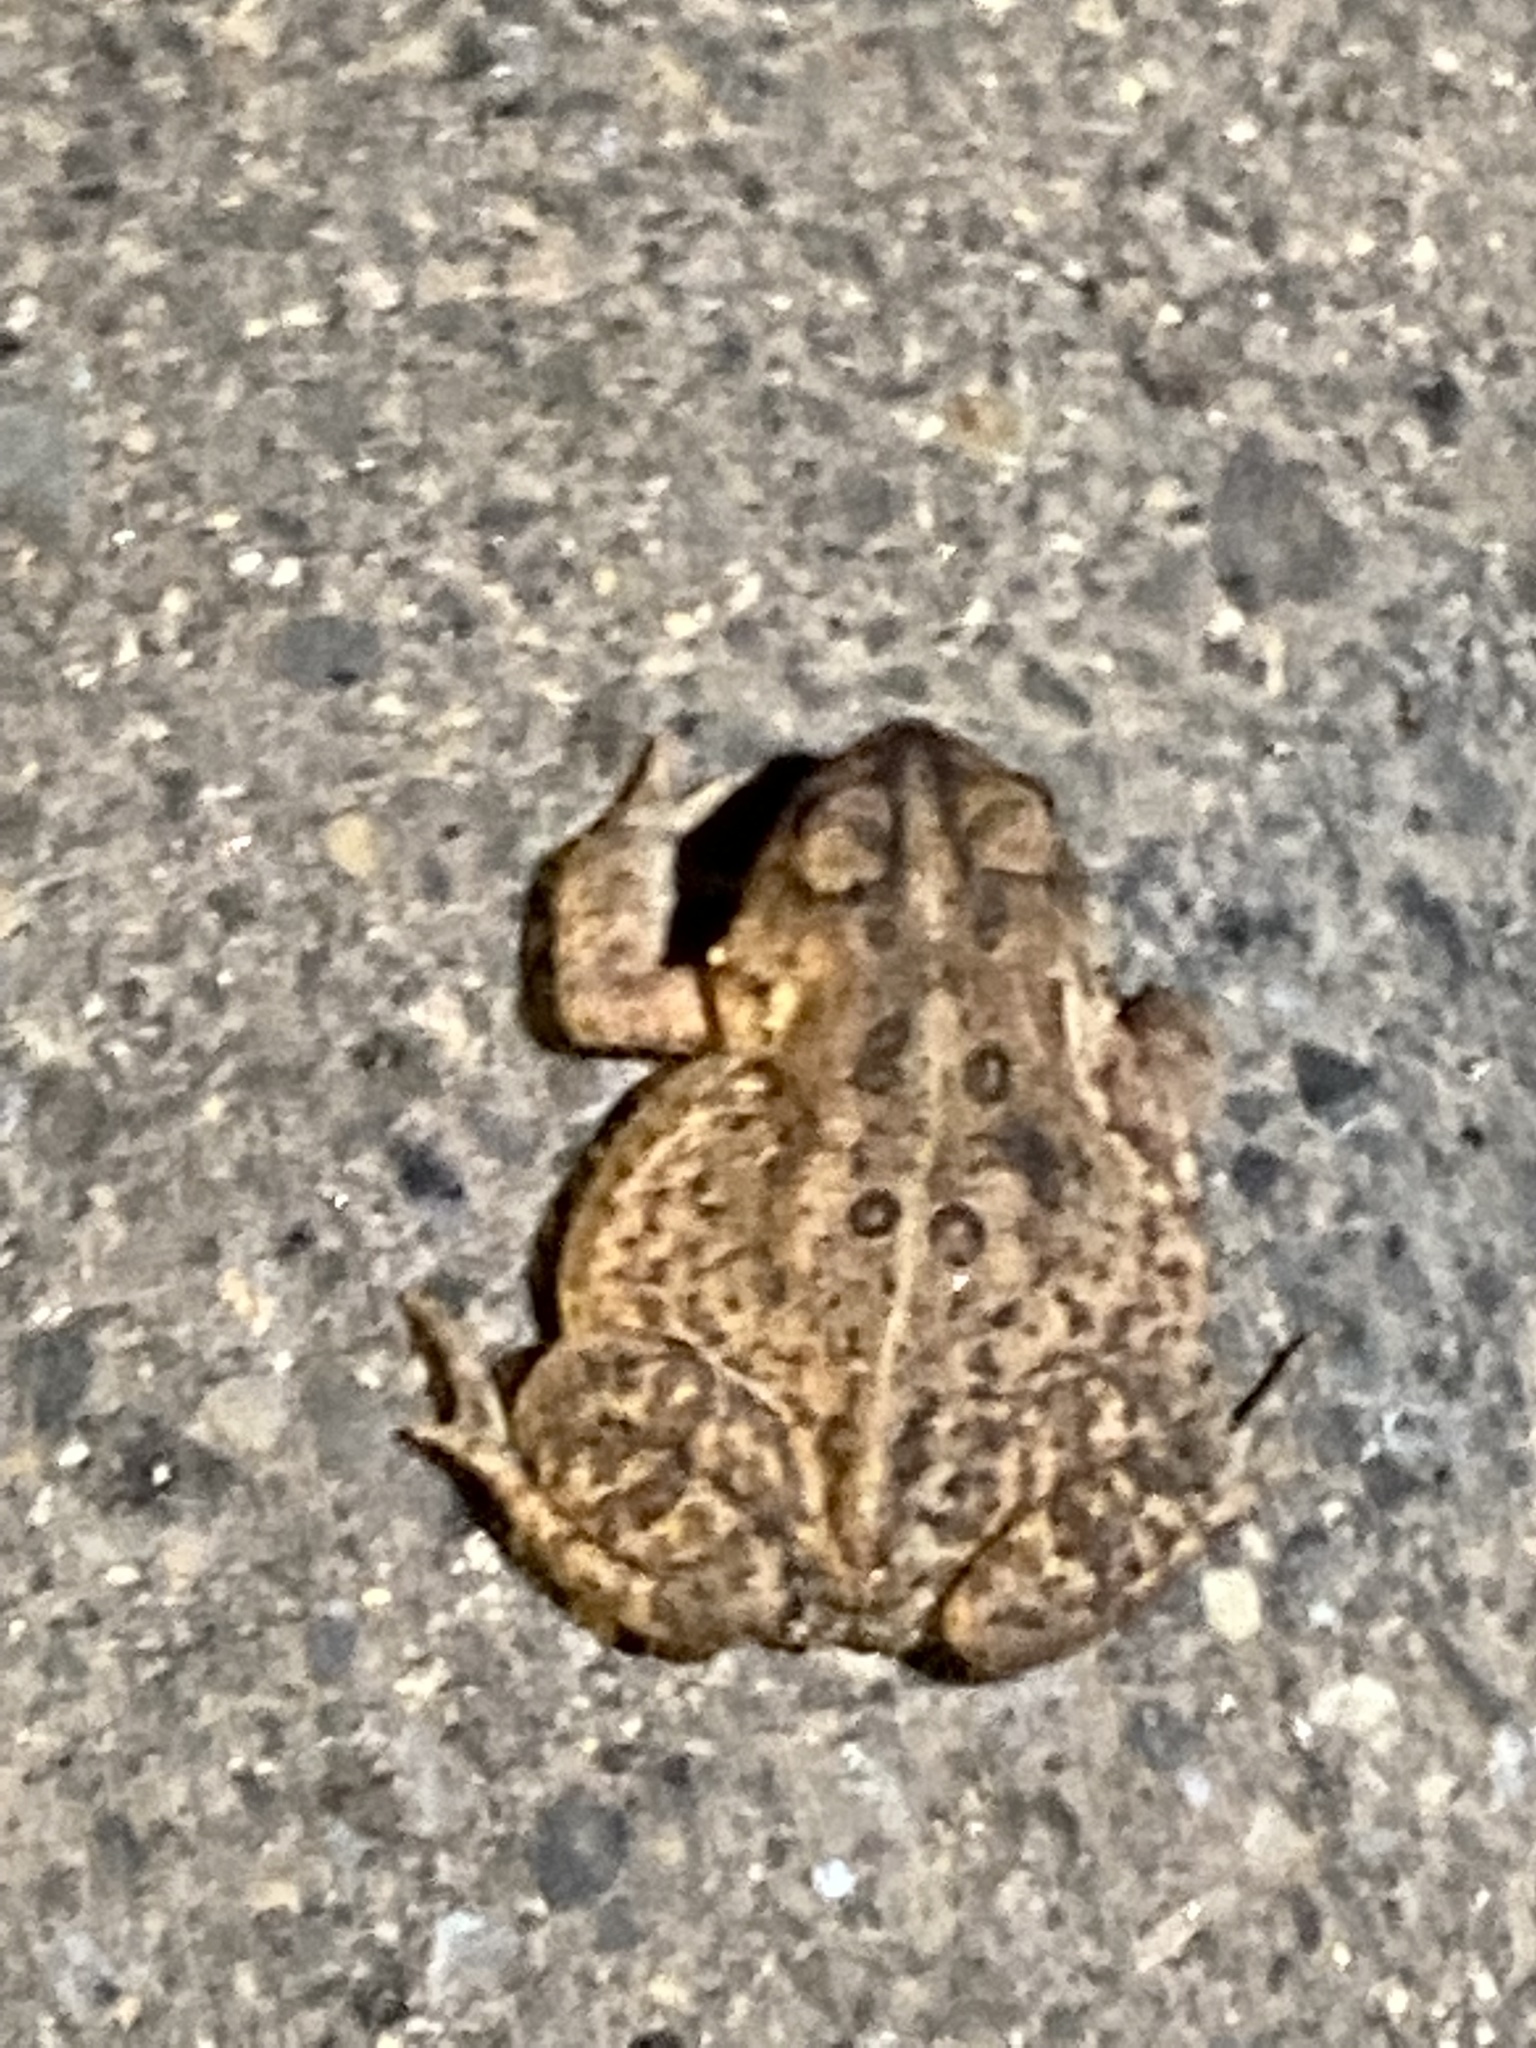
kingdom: Animalia
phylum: Chordata
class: Amphibia
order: Anura
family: Bufonidae
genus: Anaxyrus
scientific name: Anaxyrus americanus
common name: American toad
